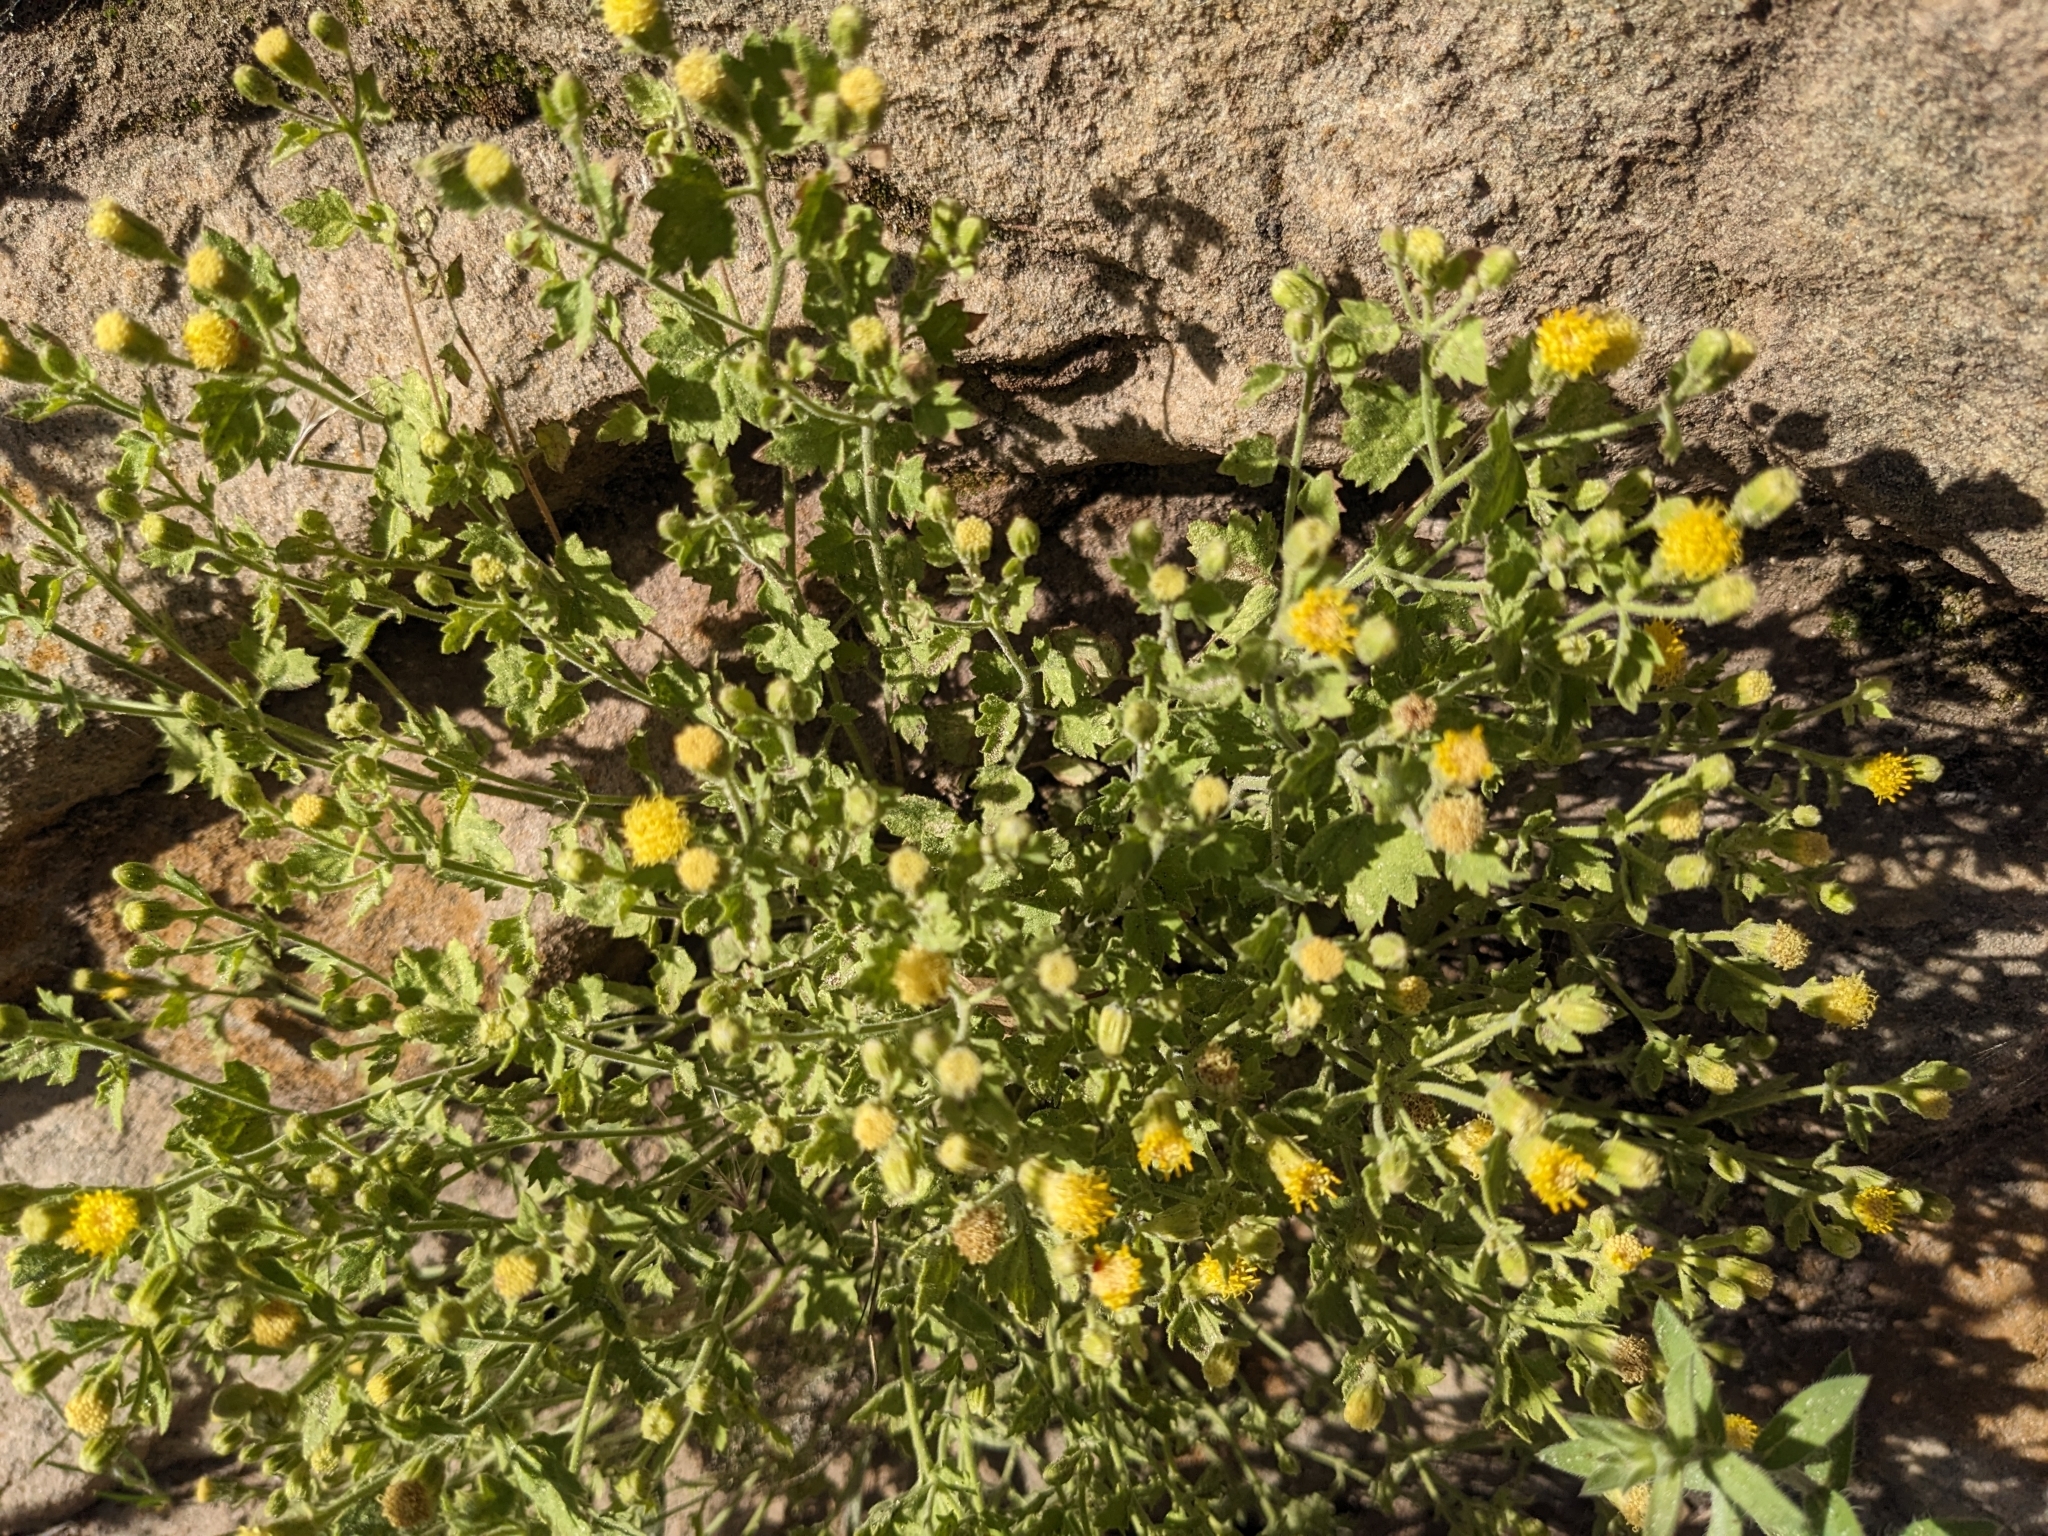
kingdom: Plantae
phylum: Tracheophyta
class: Magnoliopsida
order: Asterales
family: Asteraceae
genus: Laphamia
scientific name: Laphamia sanchezii
